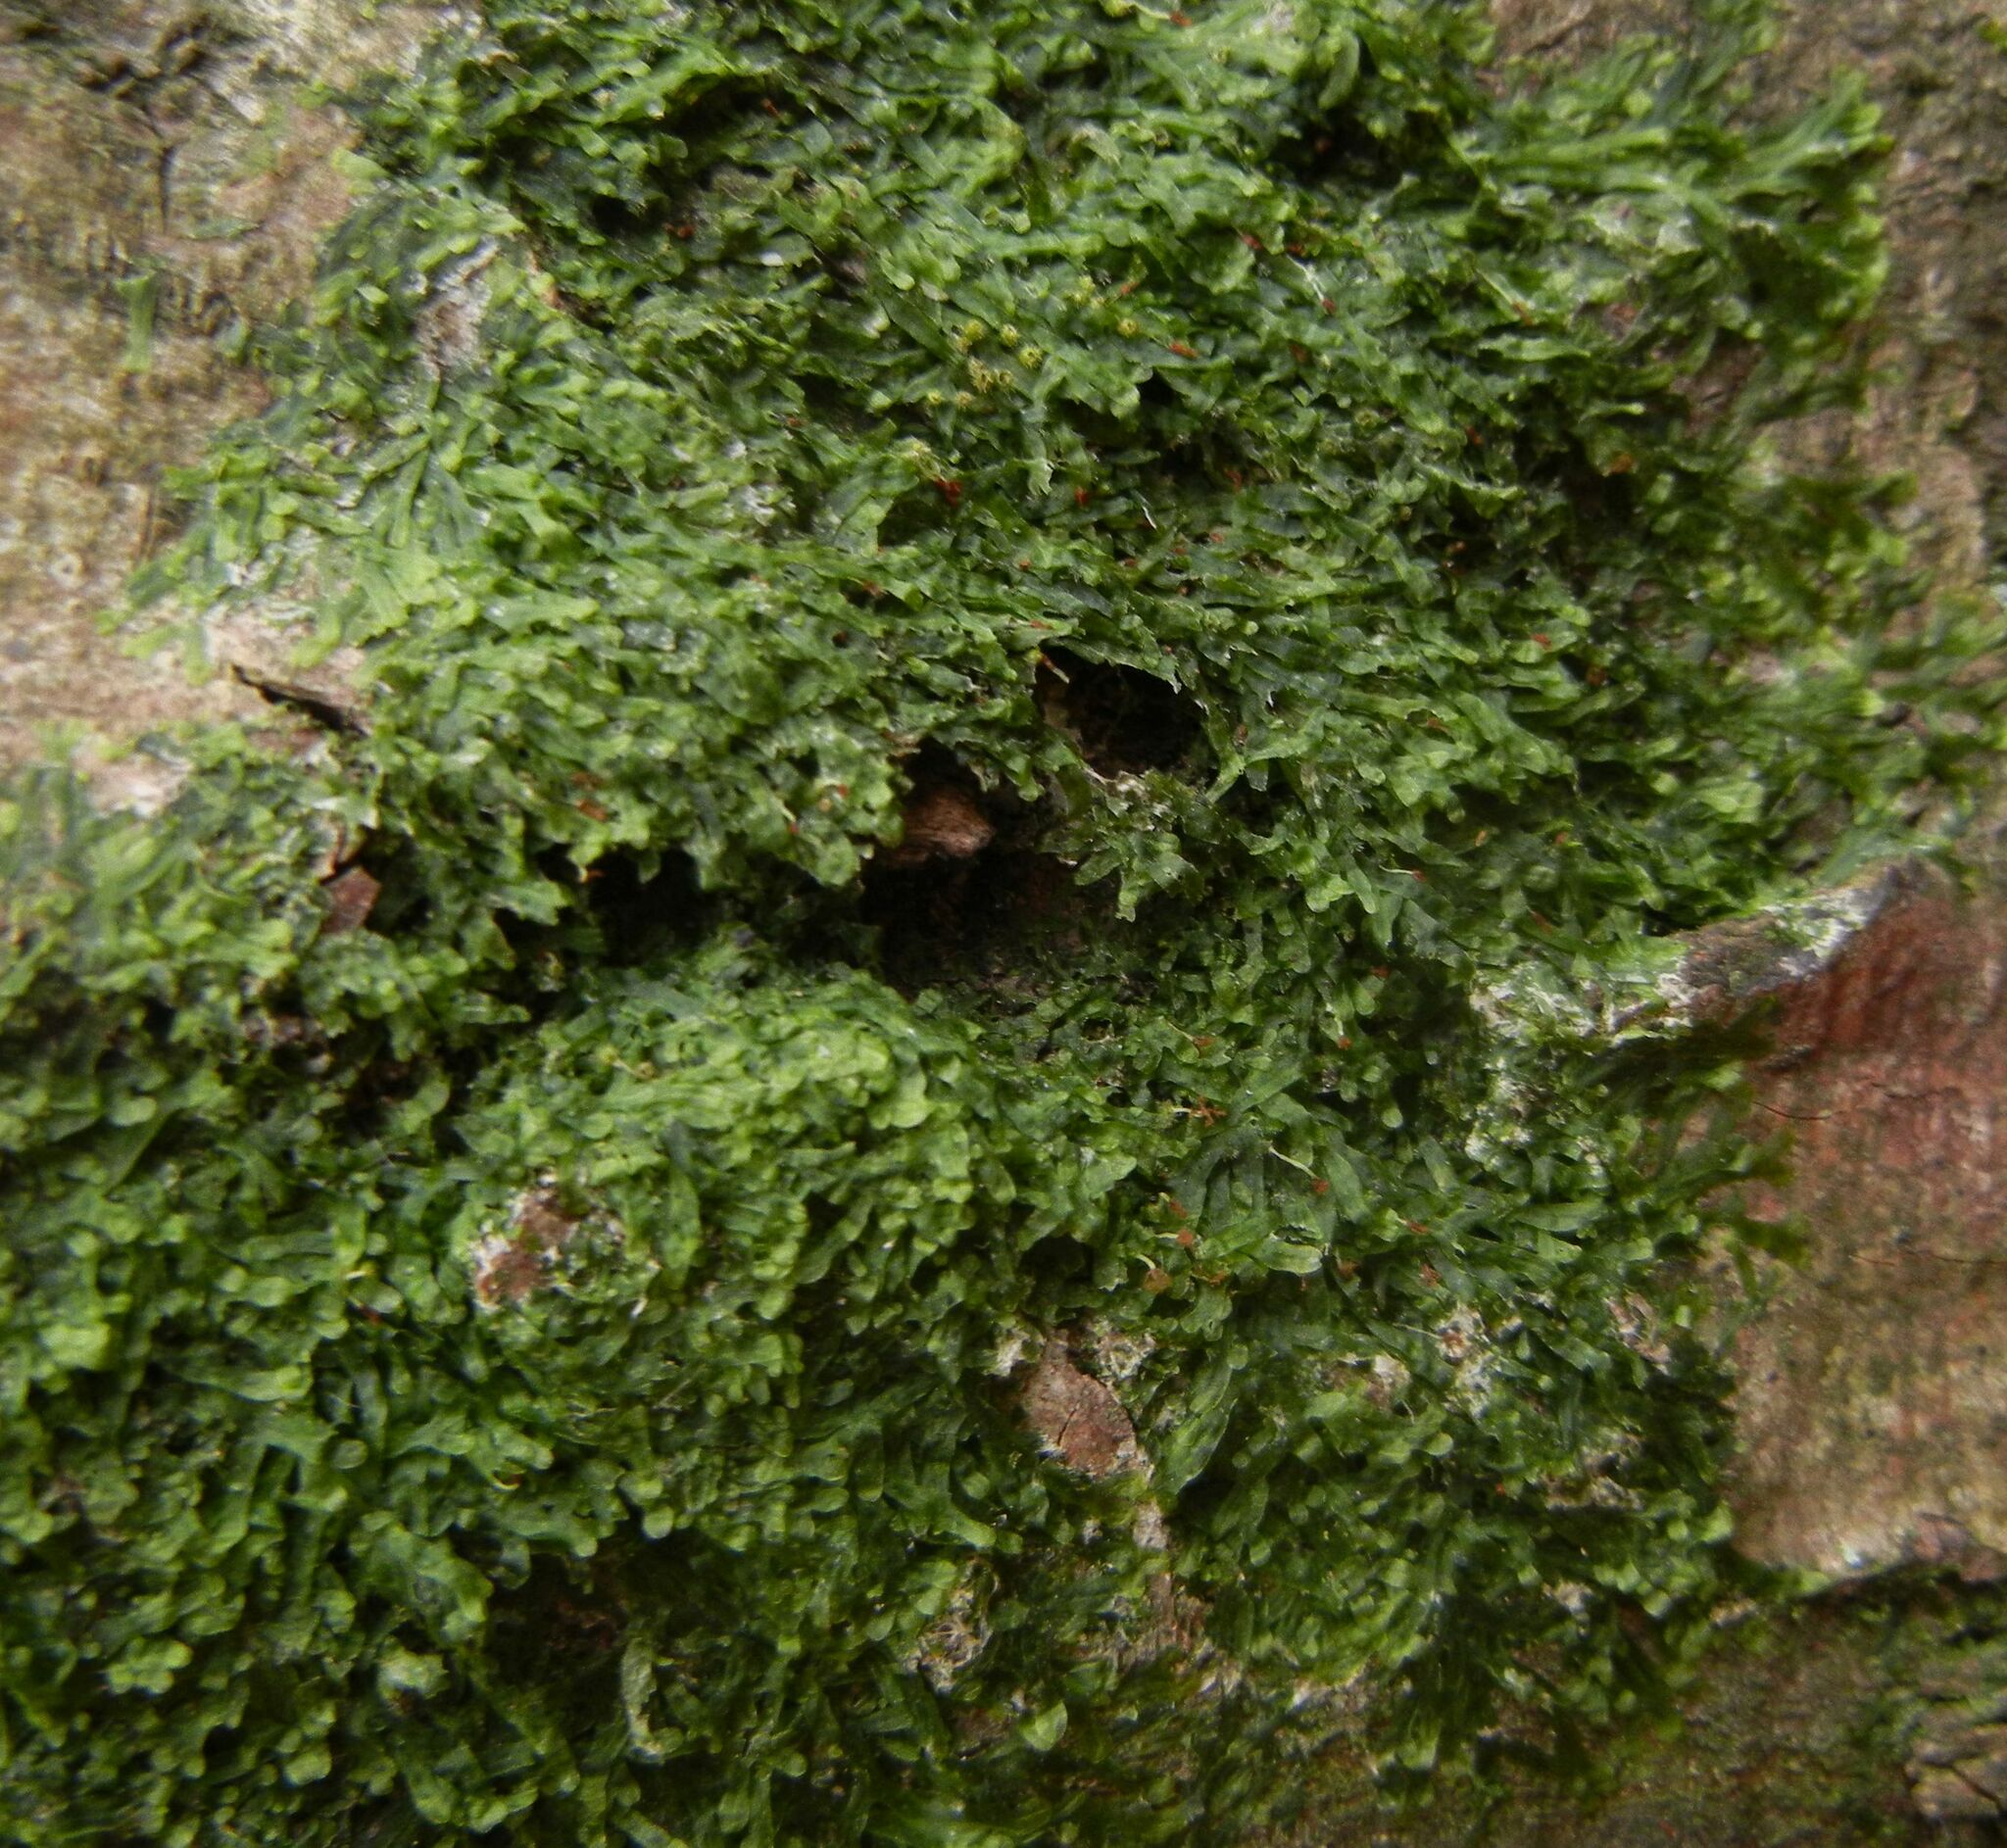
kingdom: Plantae
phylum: Marchantiophyta
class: Jungermanniopsida
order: Metzgeriales
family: Metzgeriaceae
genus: Metzgeria
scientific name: Metzgeria furcata
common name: Forked veilwort
